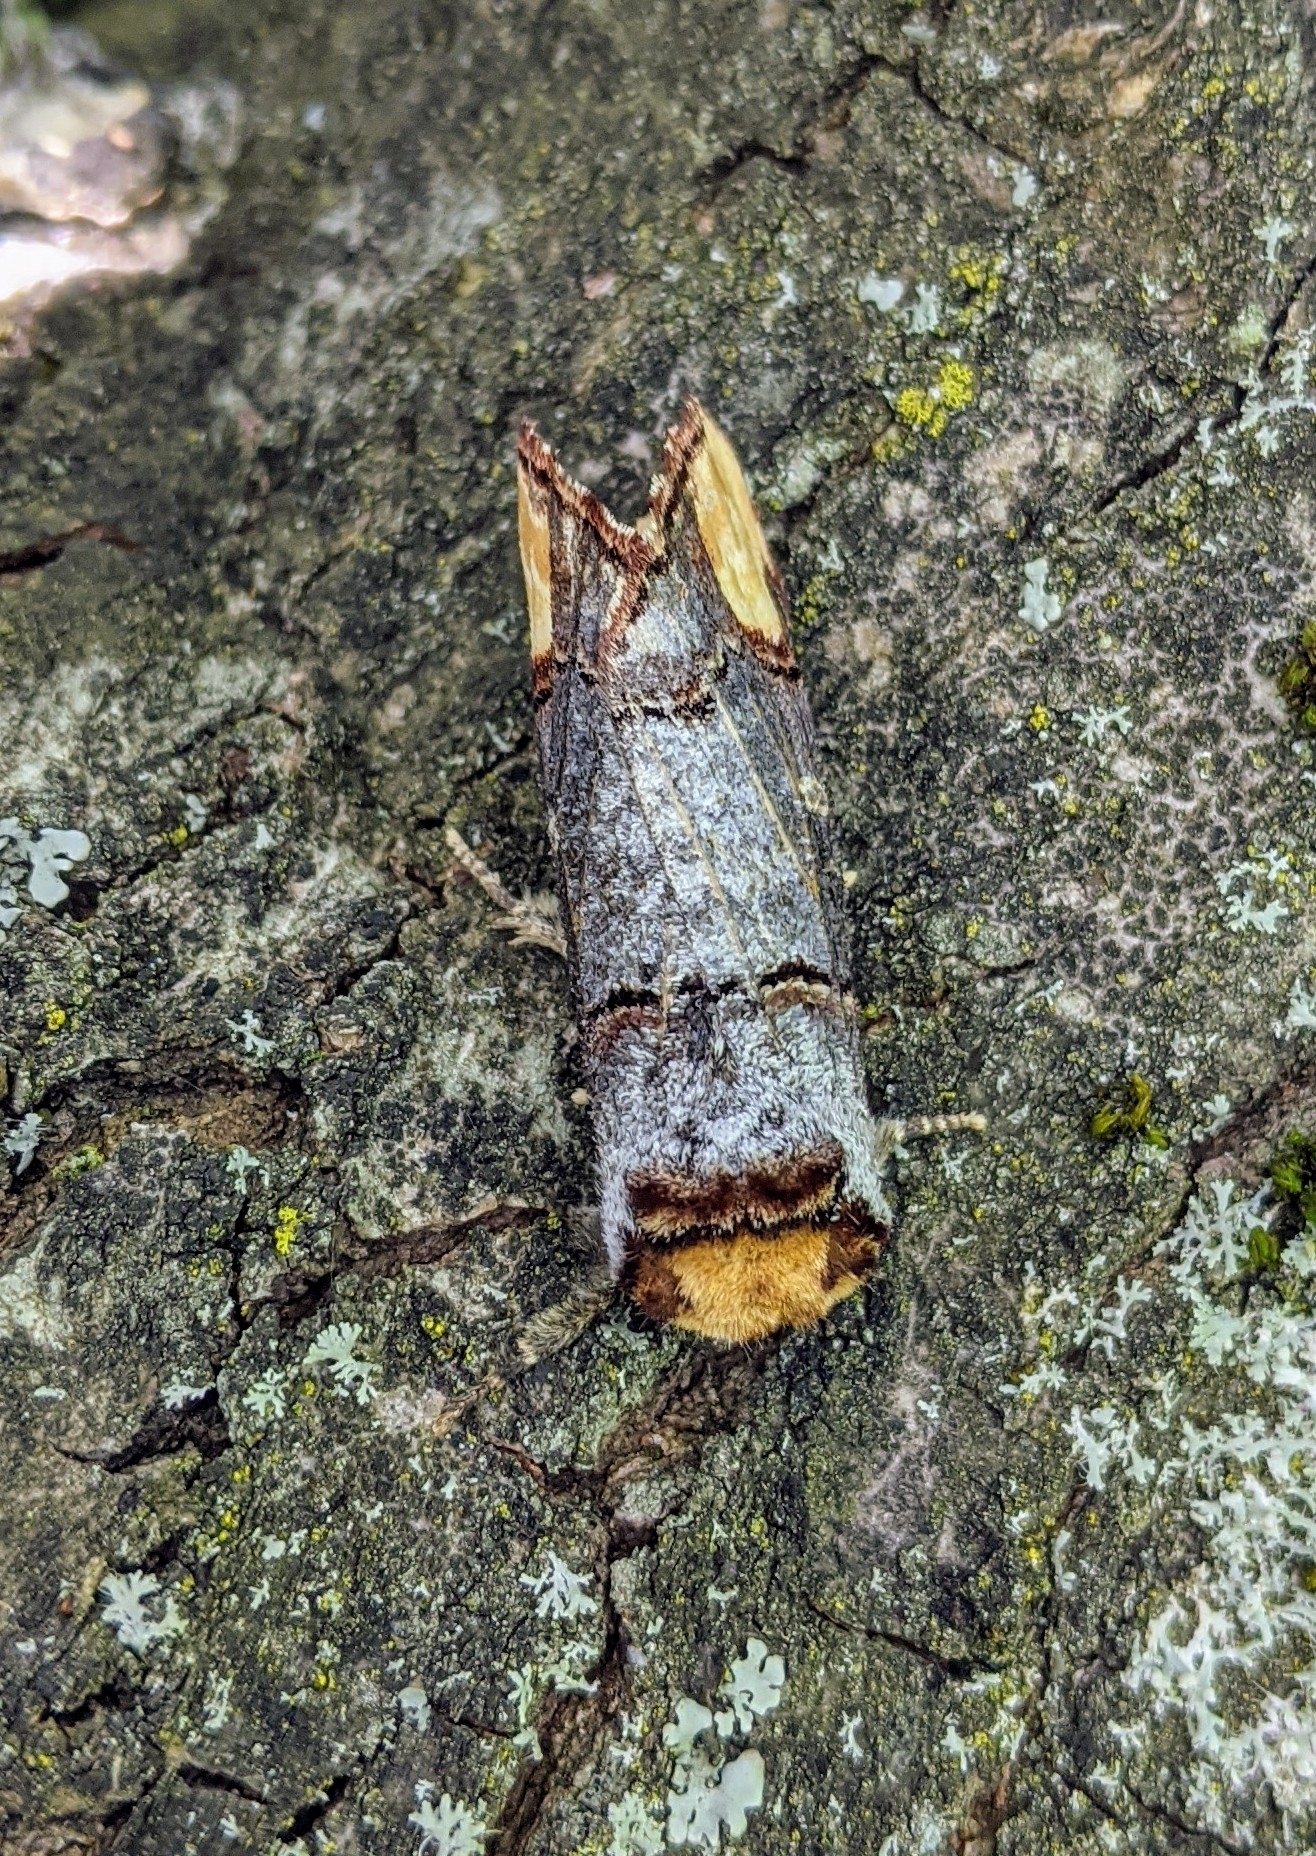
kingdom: Animalia
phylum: Arthropoda
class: Insecta
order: Lepidoptera
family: Notodontidae
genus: Phalera
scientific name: Phalera bucephala
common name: Buff-tip
